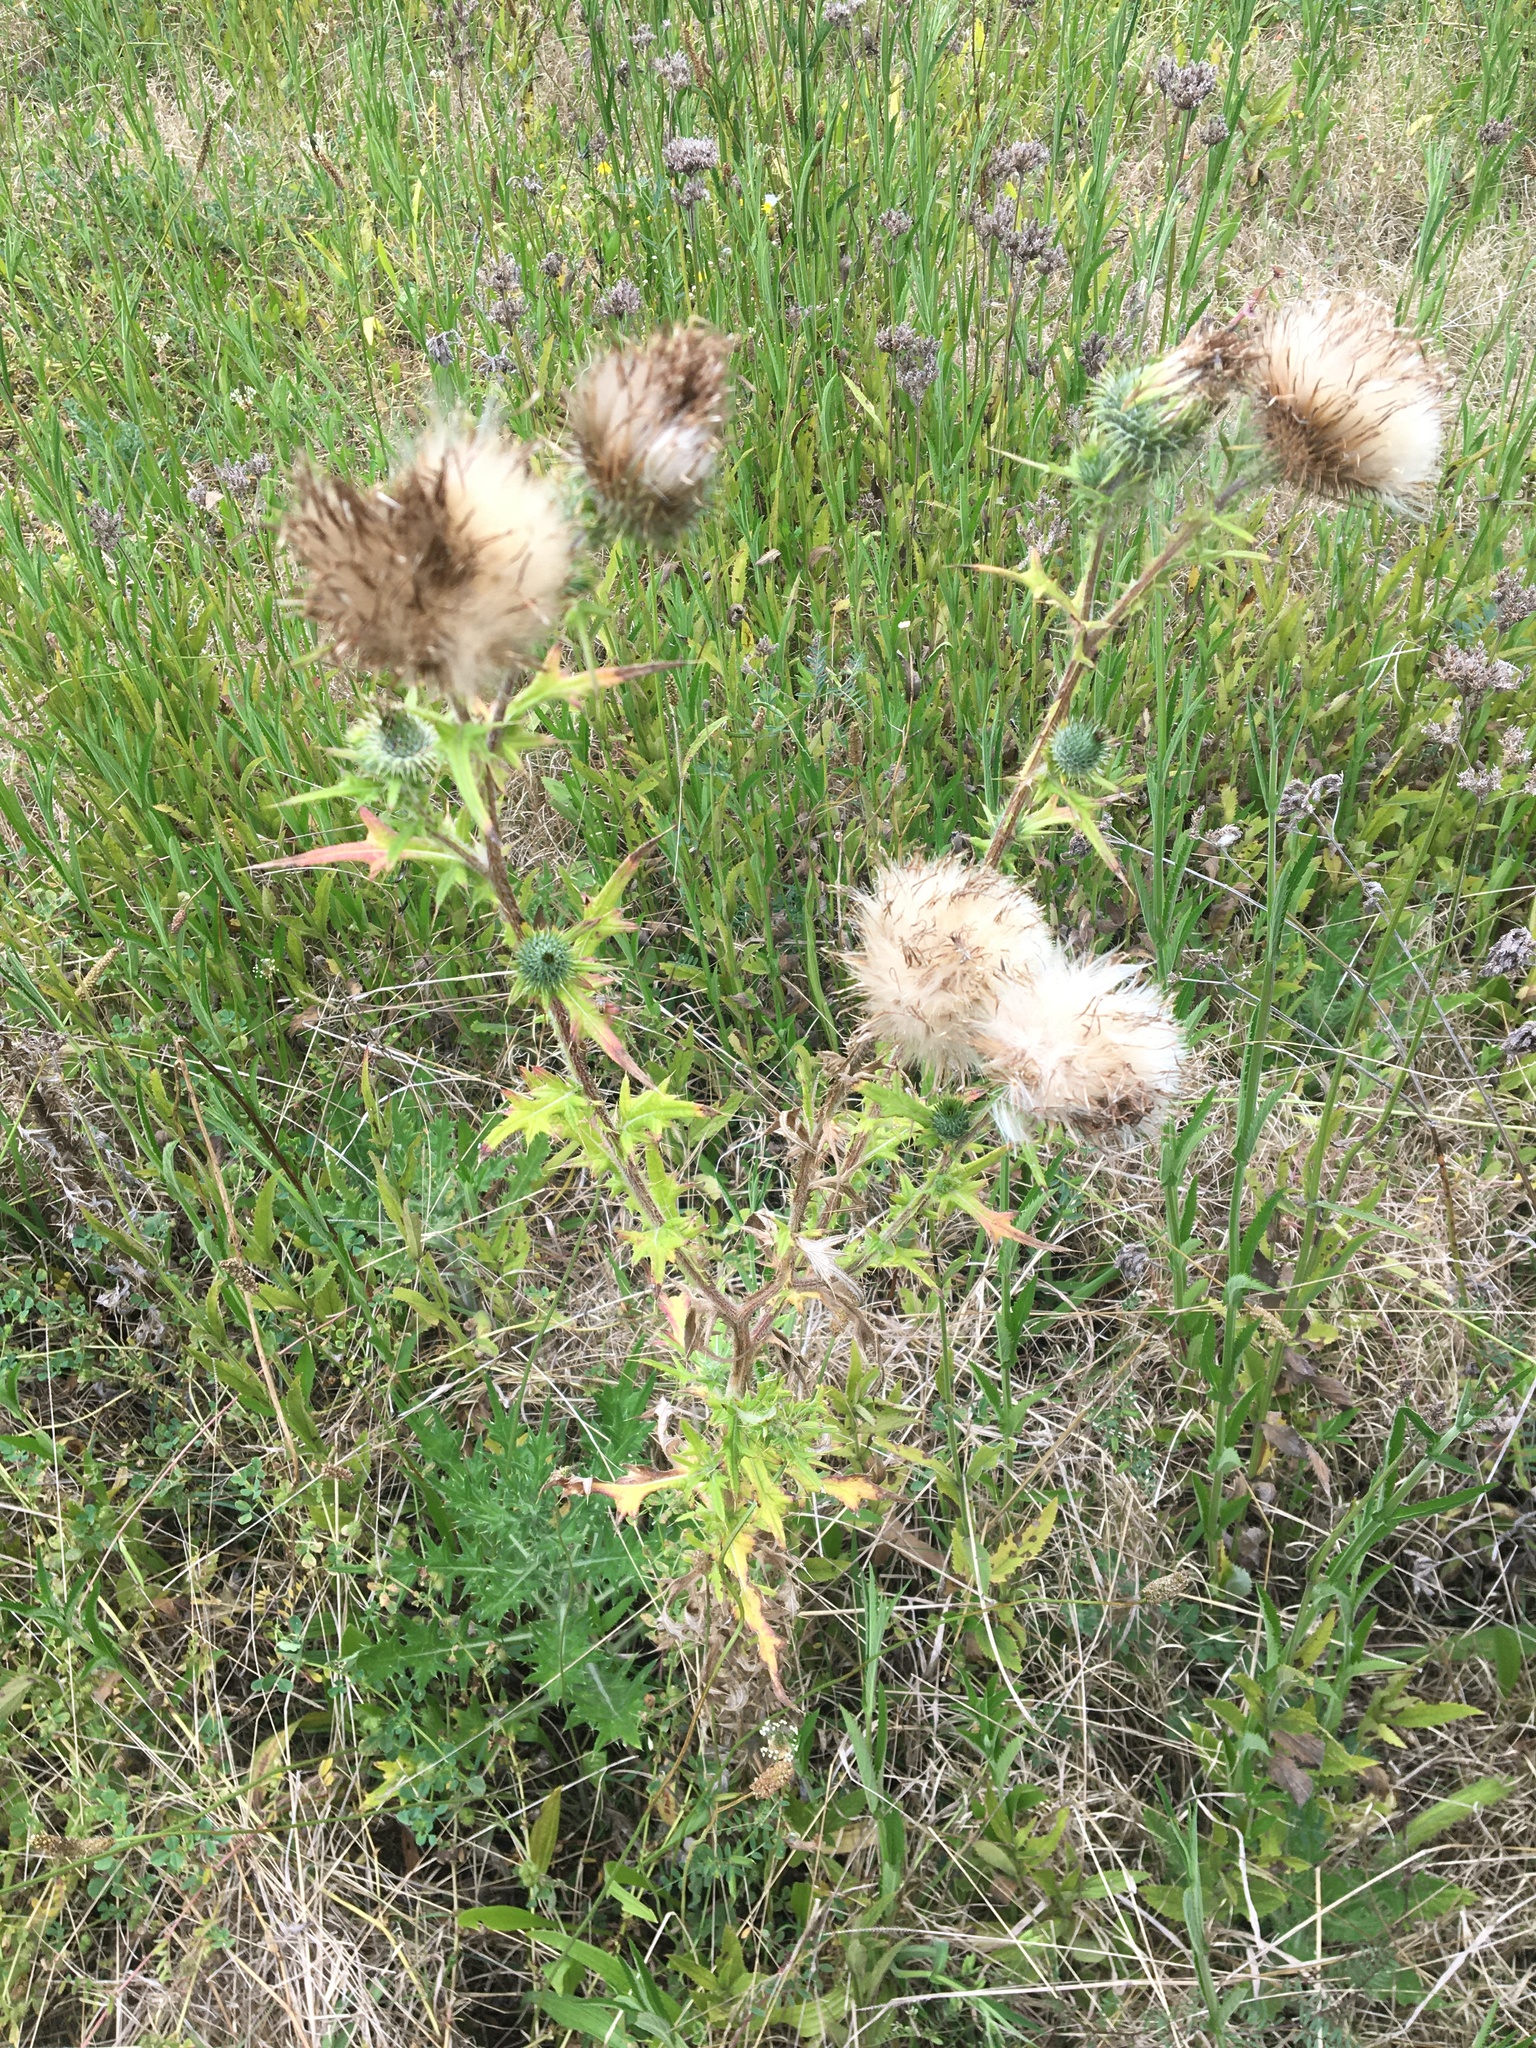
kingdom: Plantae
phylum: Tracheophyta
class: Magnoliopsida
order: Asterales
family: Asteraceae
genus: Cirsium
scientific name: Cirsium vulgare
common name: Bull thistle
